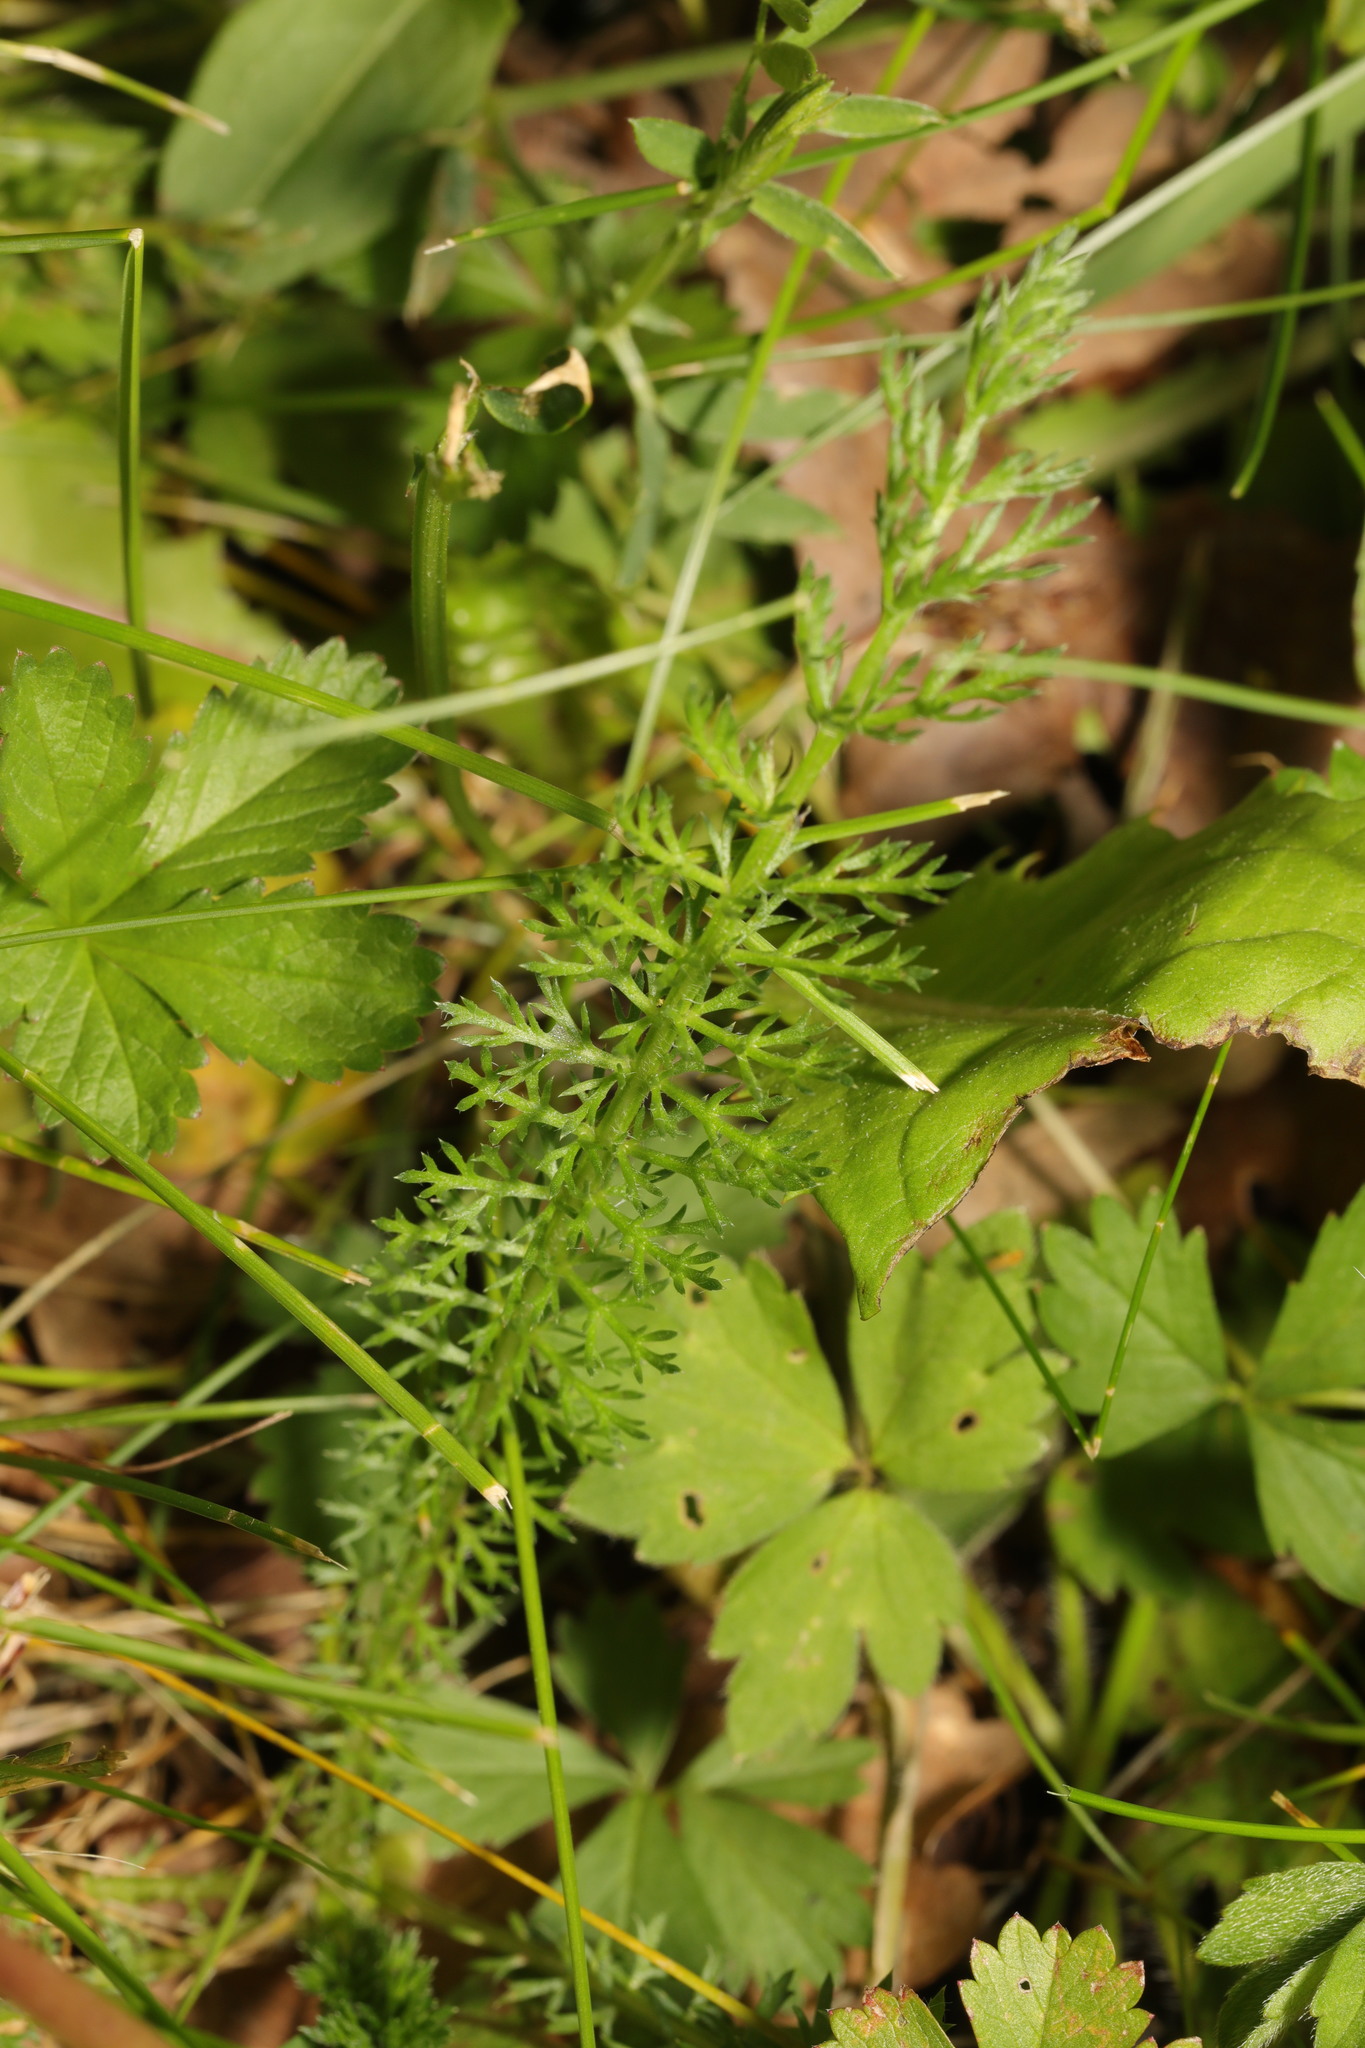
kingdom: Plantae
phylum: Tracheophyta
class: Magnoliopsida
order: Asterales
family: Asteraceae
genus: Achillea
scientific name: Achillea millefolium
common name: Yarrow
